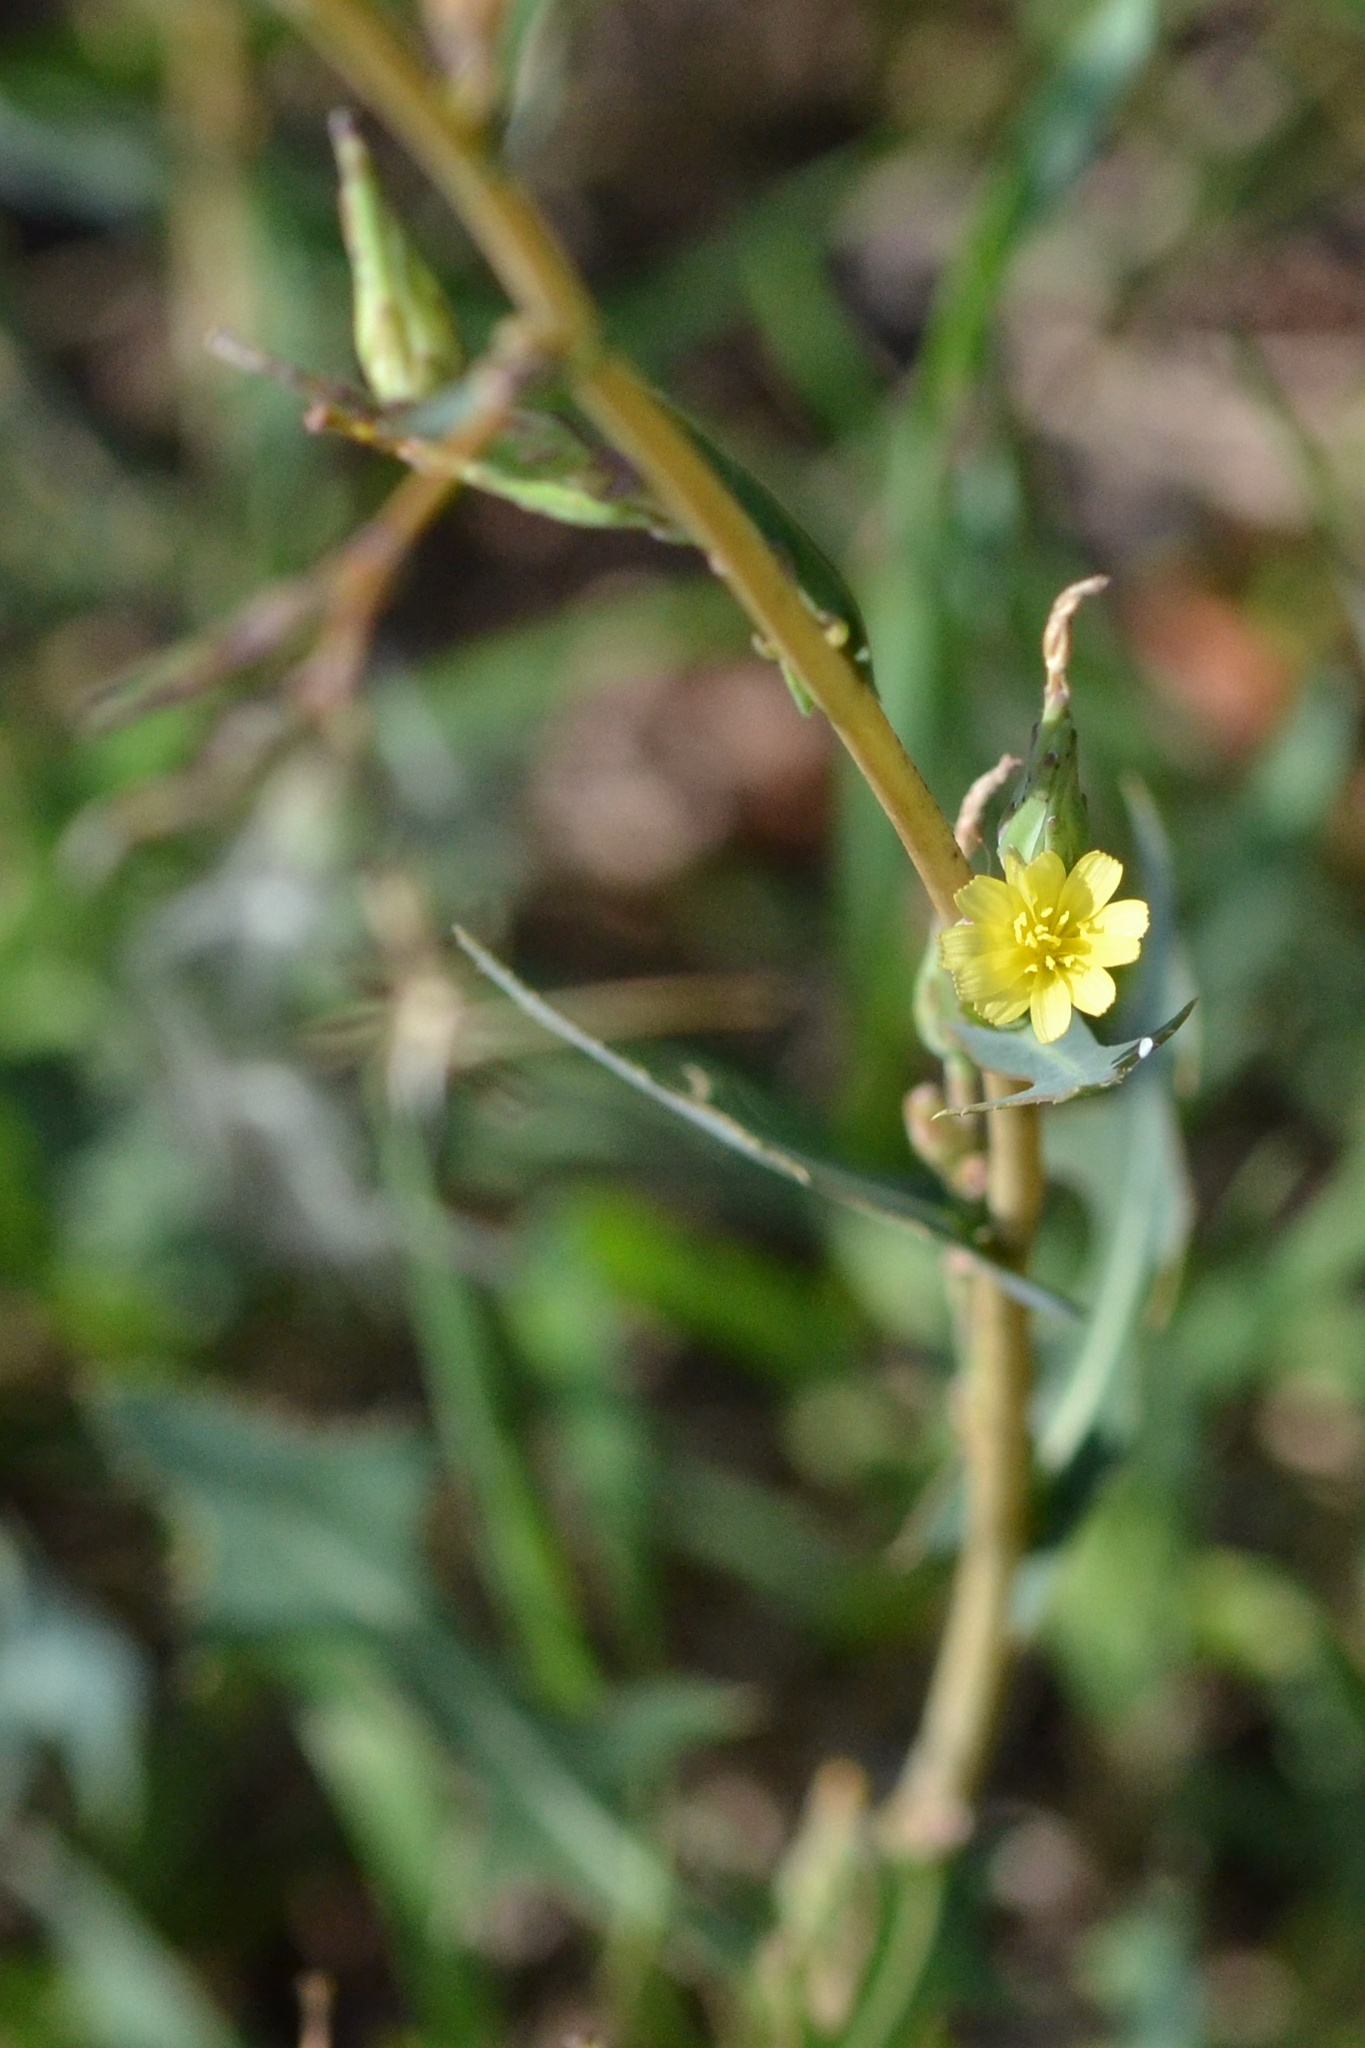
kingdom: Plantae
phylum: Tracheophyta
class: Magnoliopsida
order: Asterales
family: Asteraceae
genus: Lactuca
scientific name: Lactuca serriola
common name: Prickly lettuce
